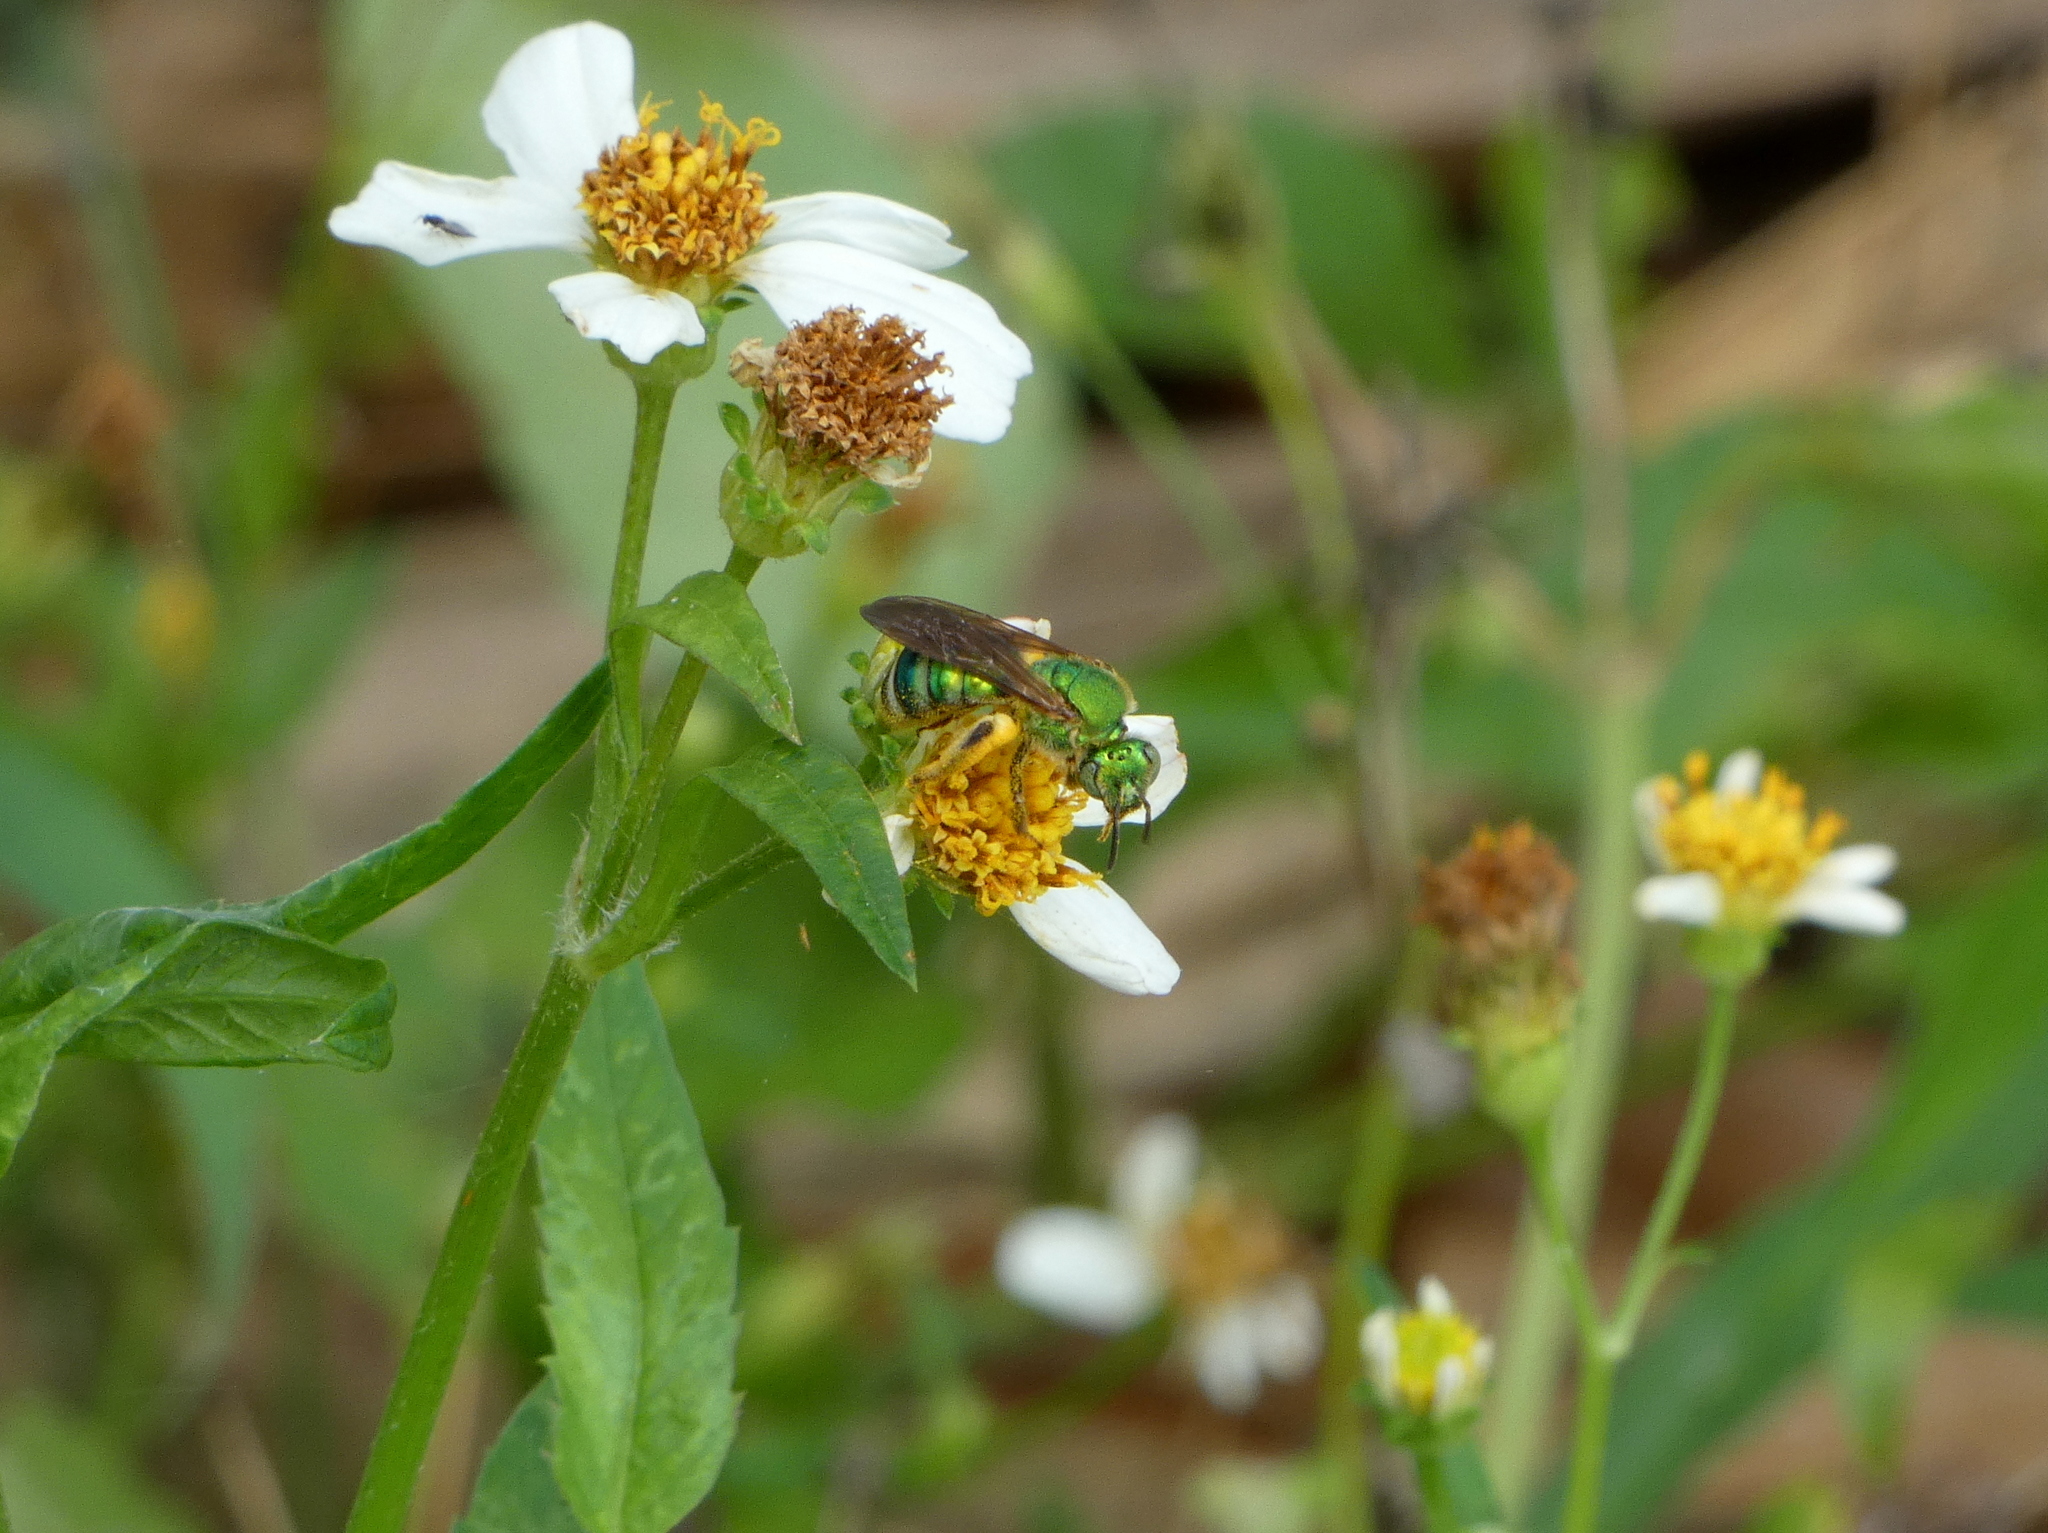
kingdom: Animalia
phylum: Arthropoda
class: Insecta
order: Hymenoptera
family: Halictidae
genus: Agapostemon
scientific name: Agapostemon splendens
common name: Brown-winged striped sweat bee
